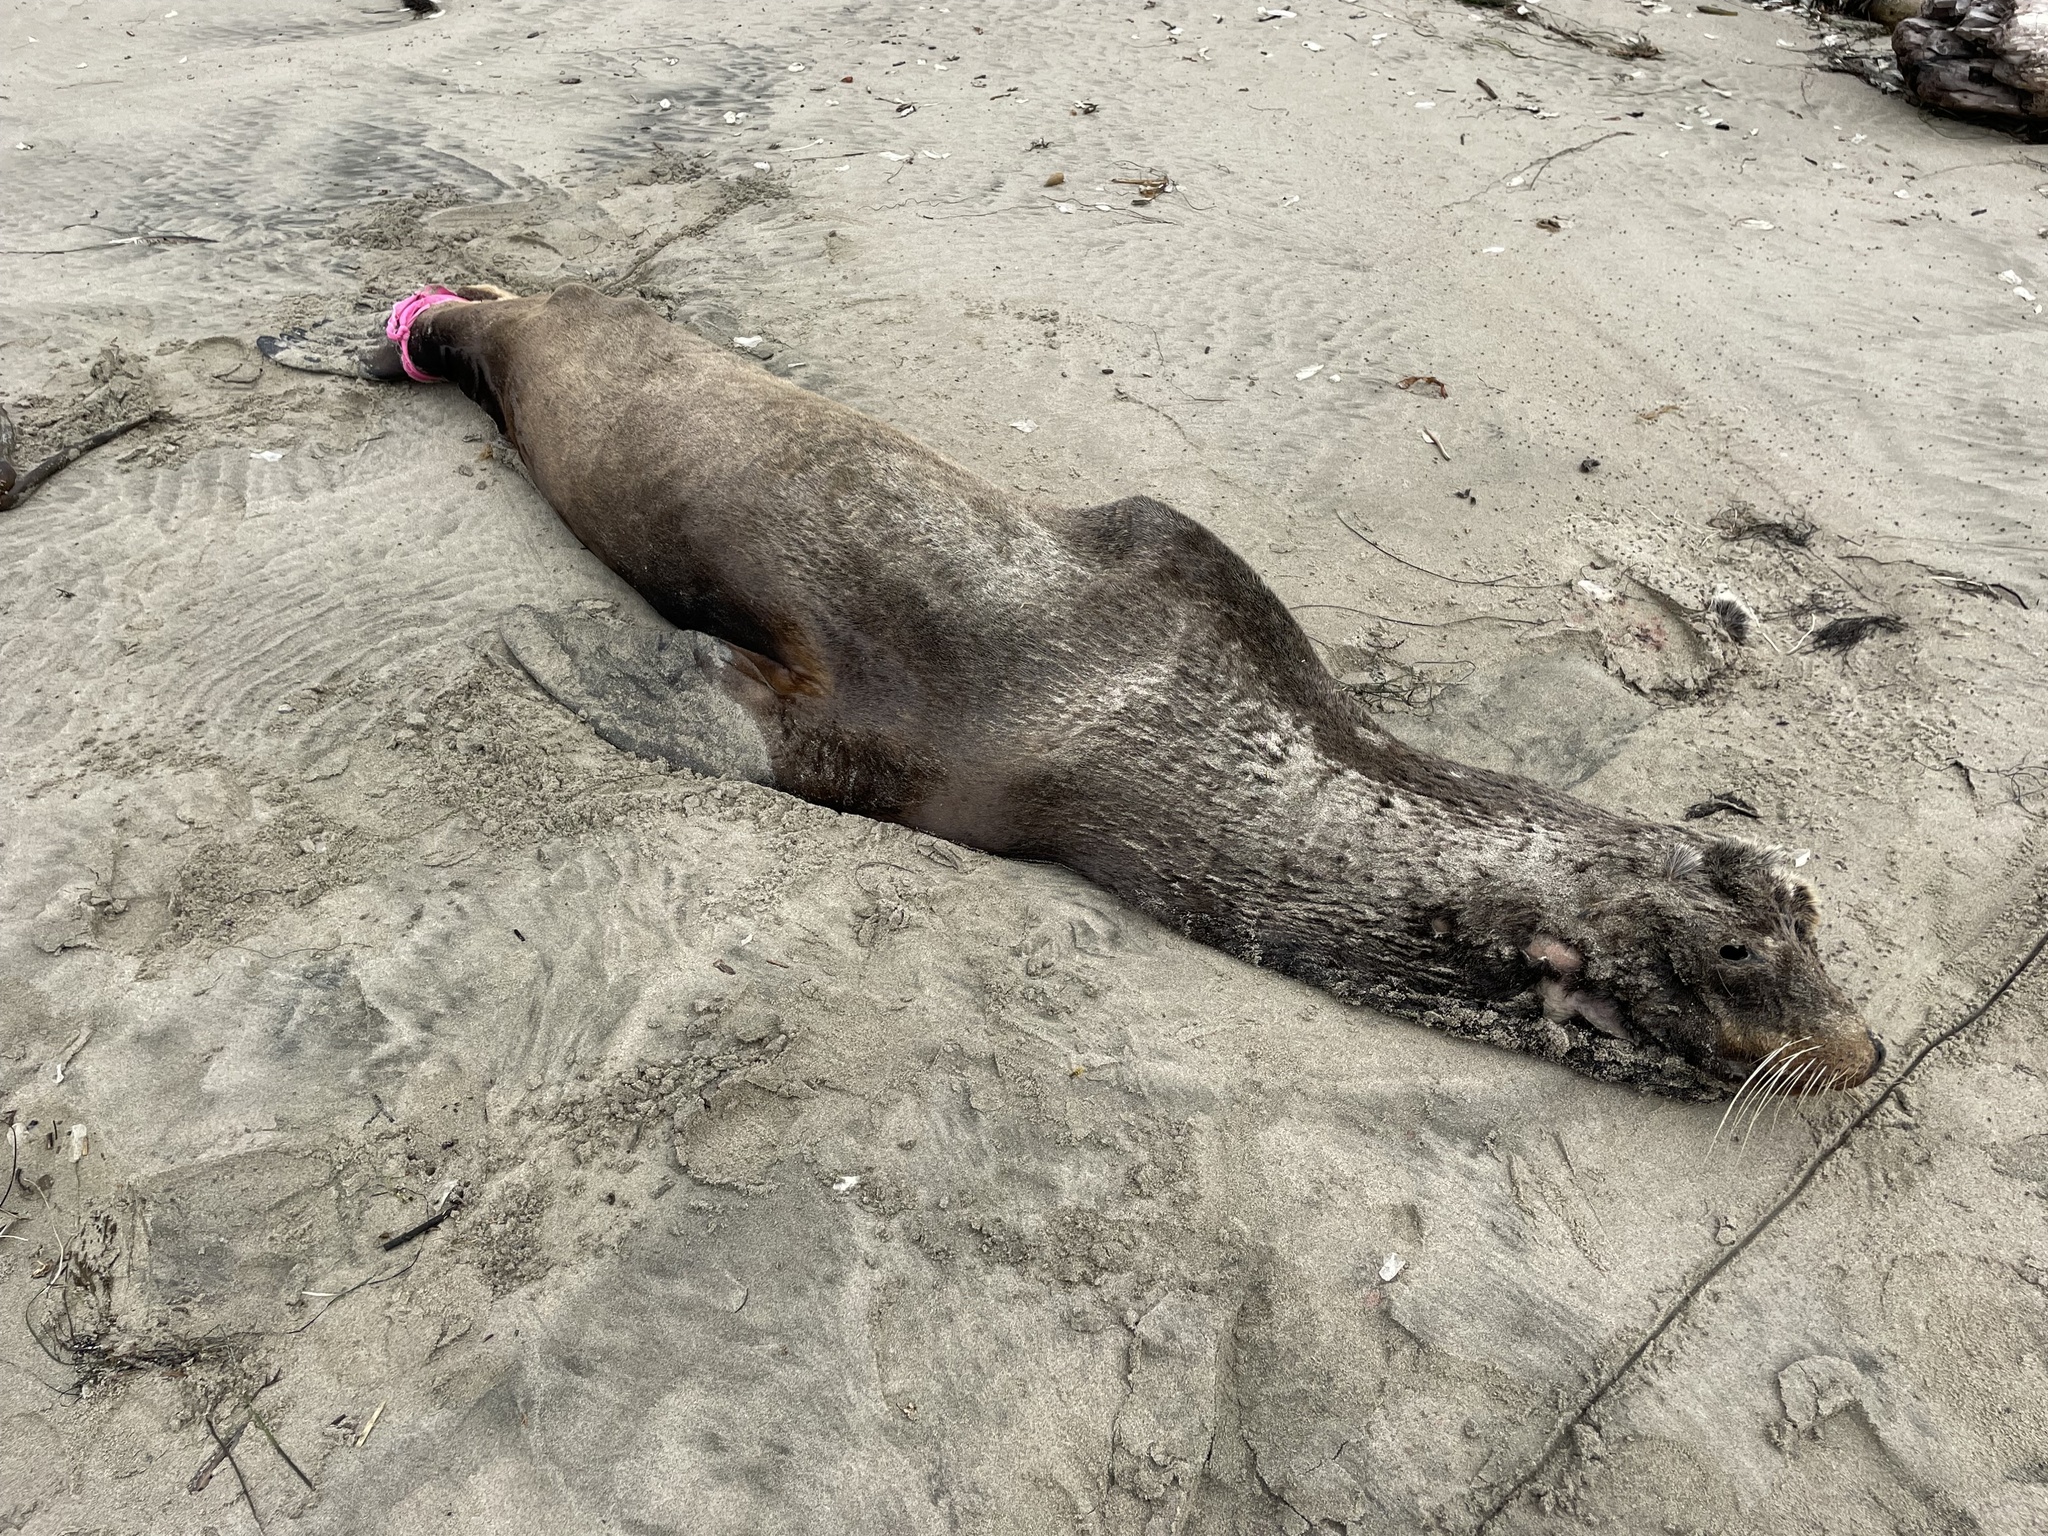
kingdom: Animalia
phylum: Chordata
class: Mammalia
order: Carnivora
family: Otariidae
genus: Zalophus
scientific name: Zalophus californianus
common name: California sea lion
